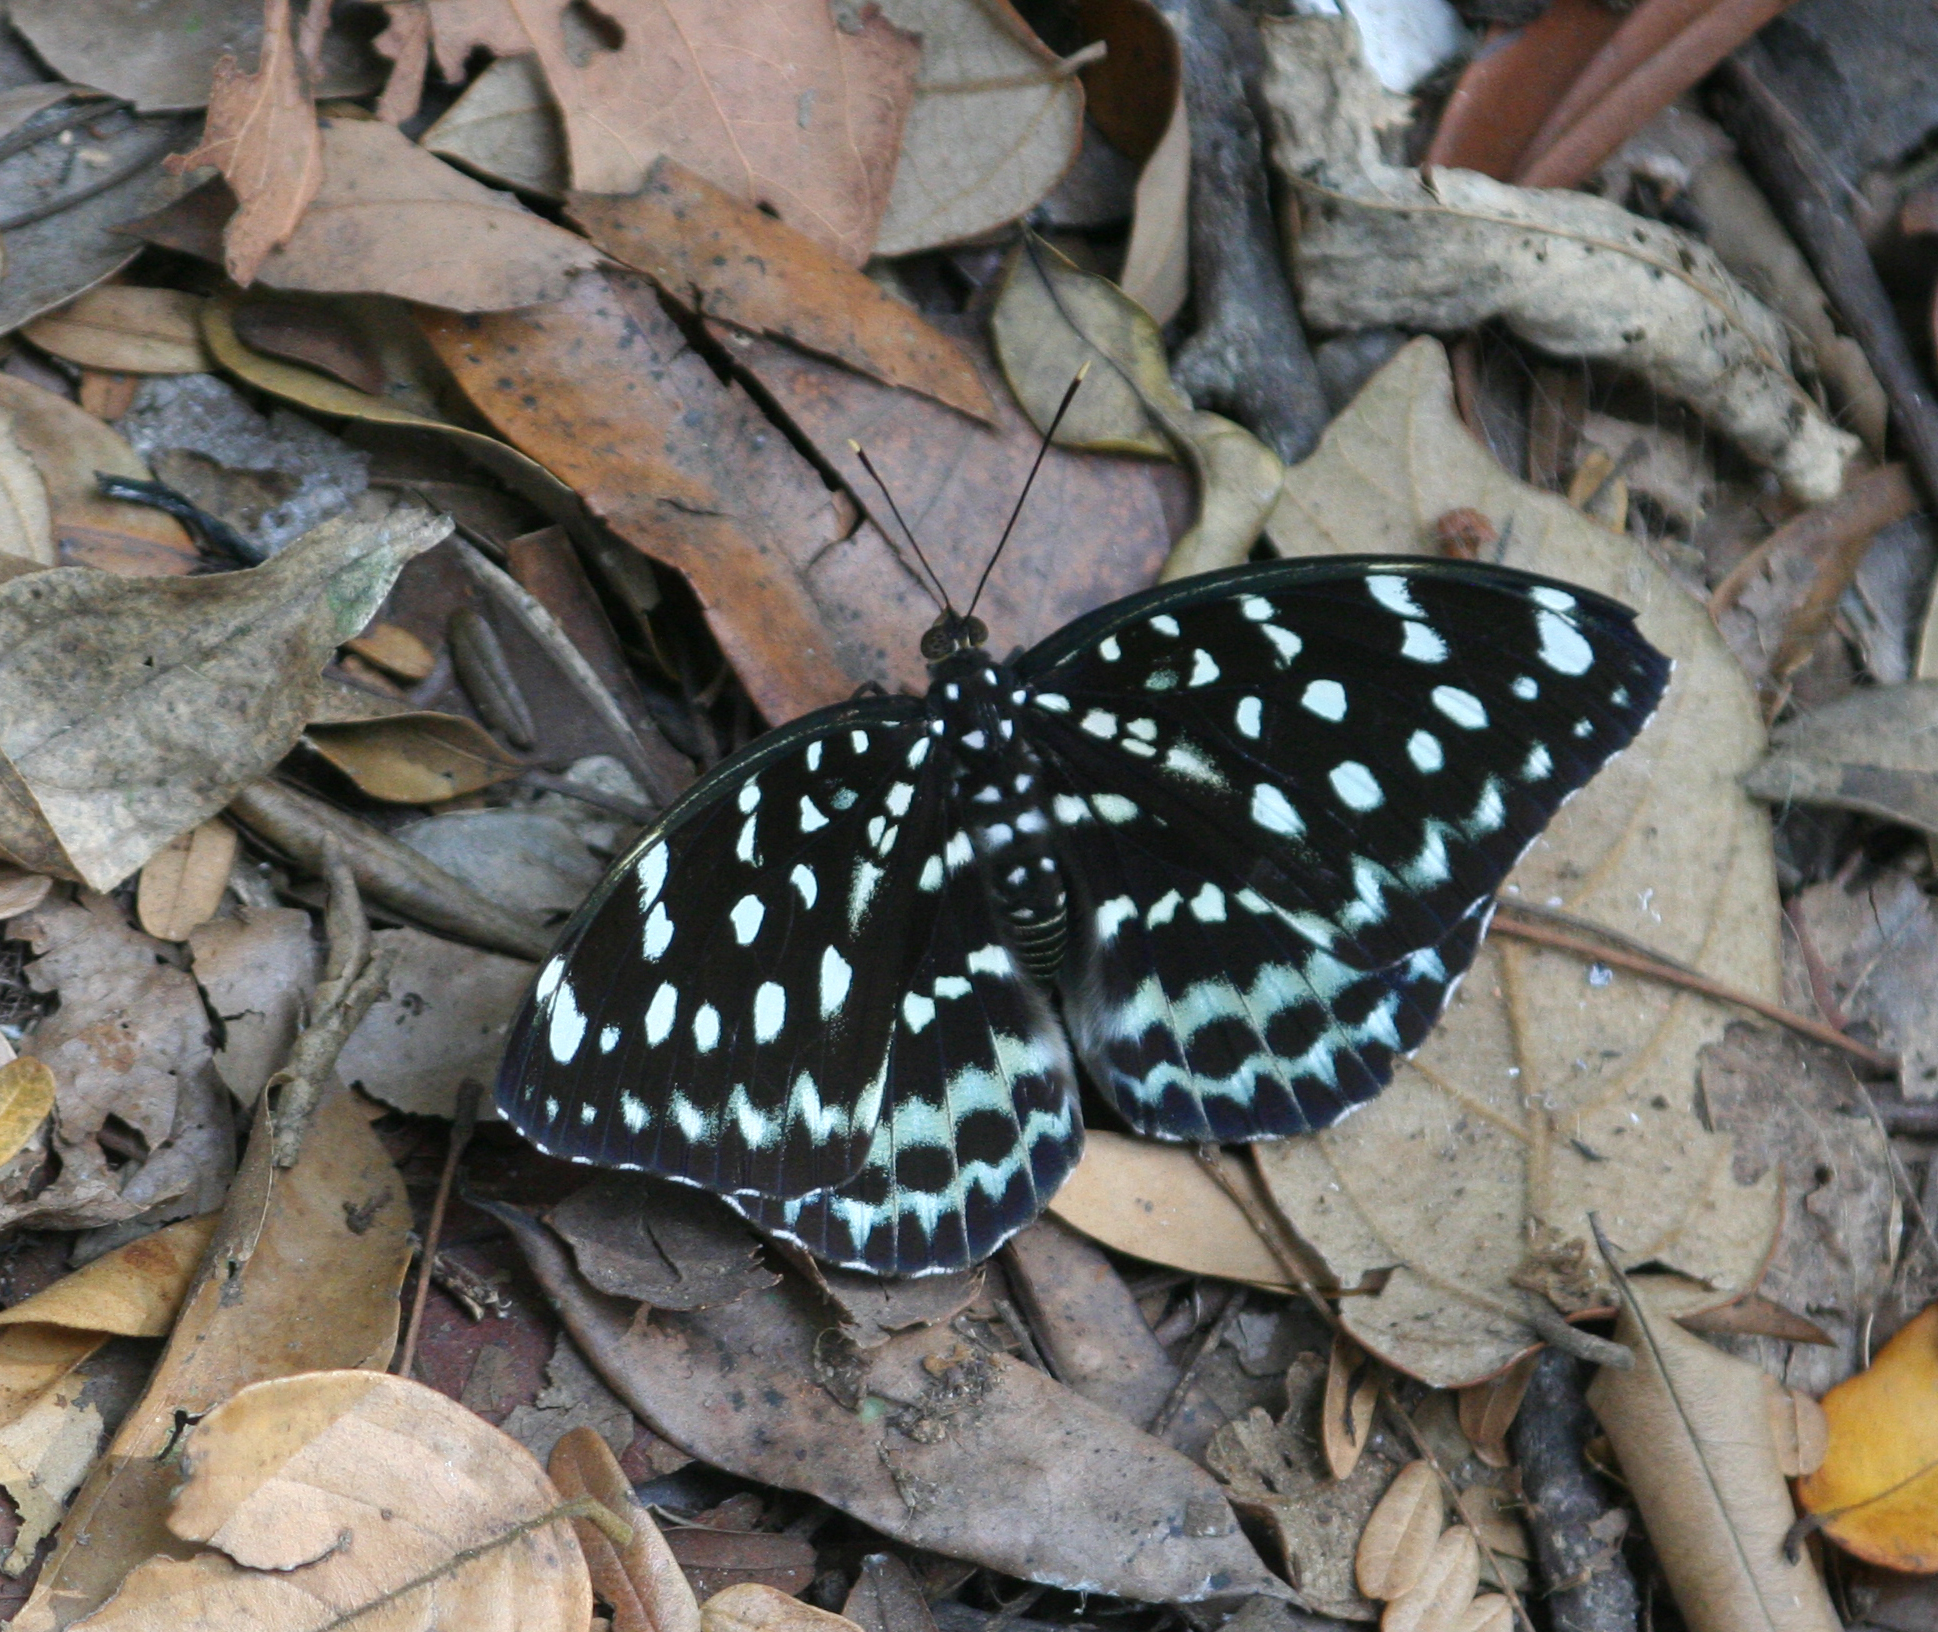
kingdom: Animalia
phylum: Arthropoda
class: Insecta
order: Lepidoptera
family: Nymphalidae
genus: Lexias
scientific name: Lexias
